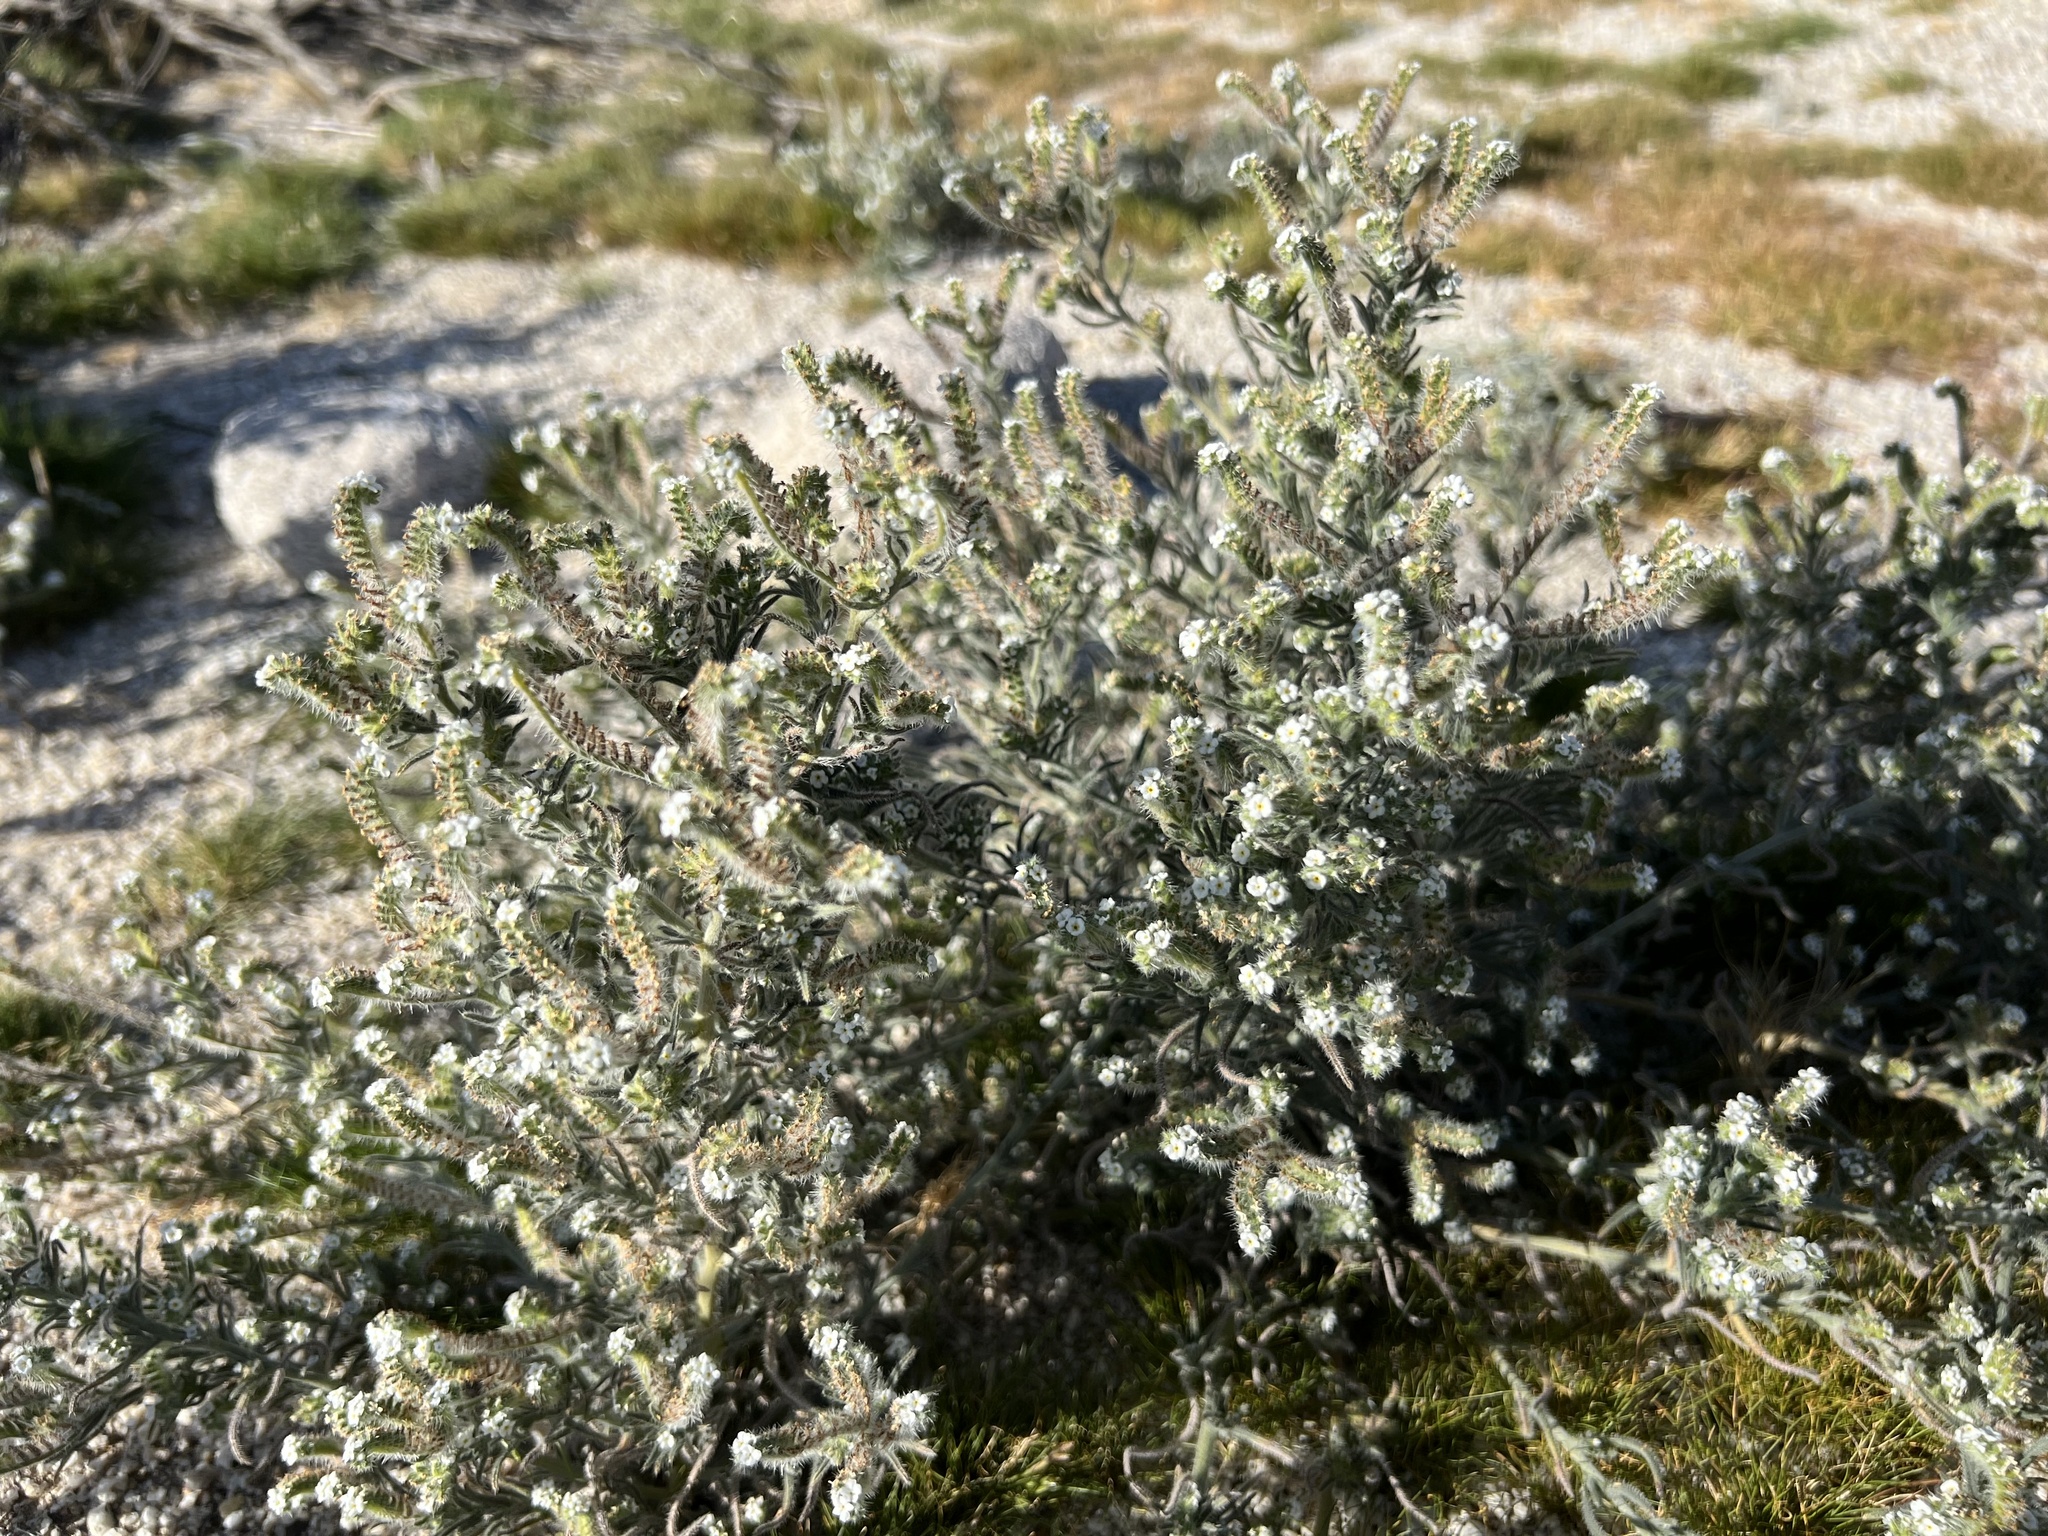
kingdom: Plantae
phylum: Tracheophyta
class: Magnoliopsida
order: Boraginales
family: Boraginaceae
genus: Johnstonella
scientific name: Johnstonella angustifolia
